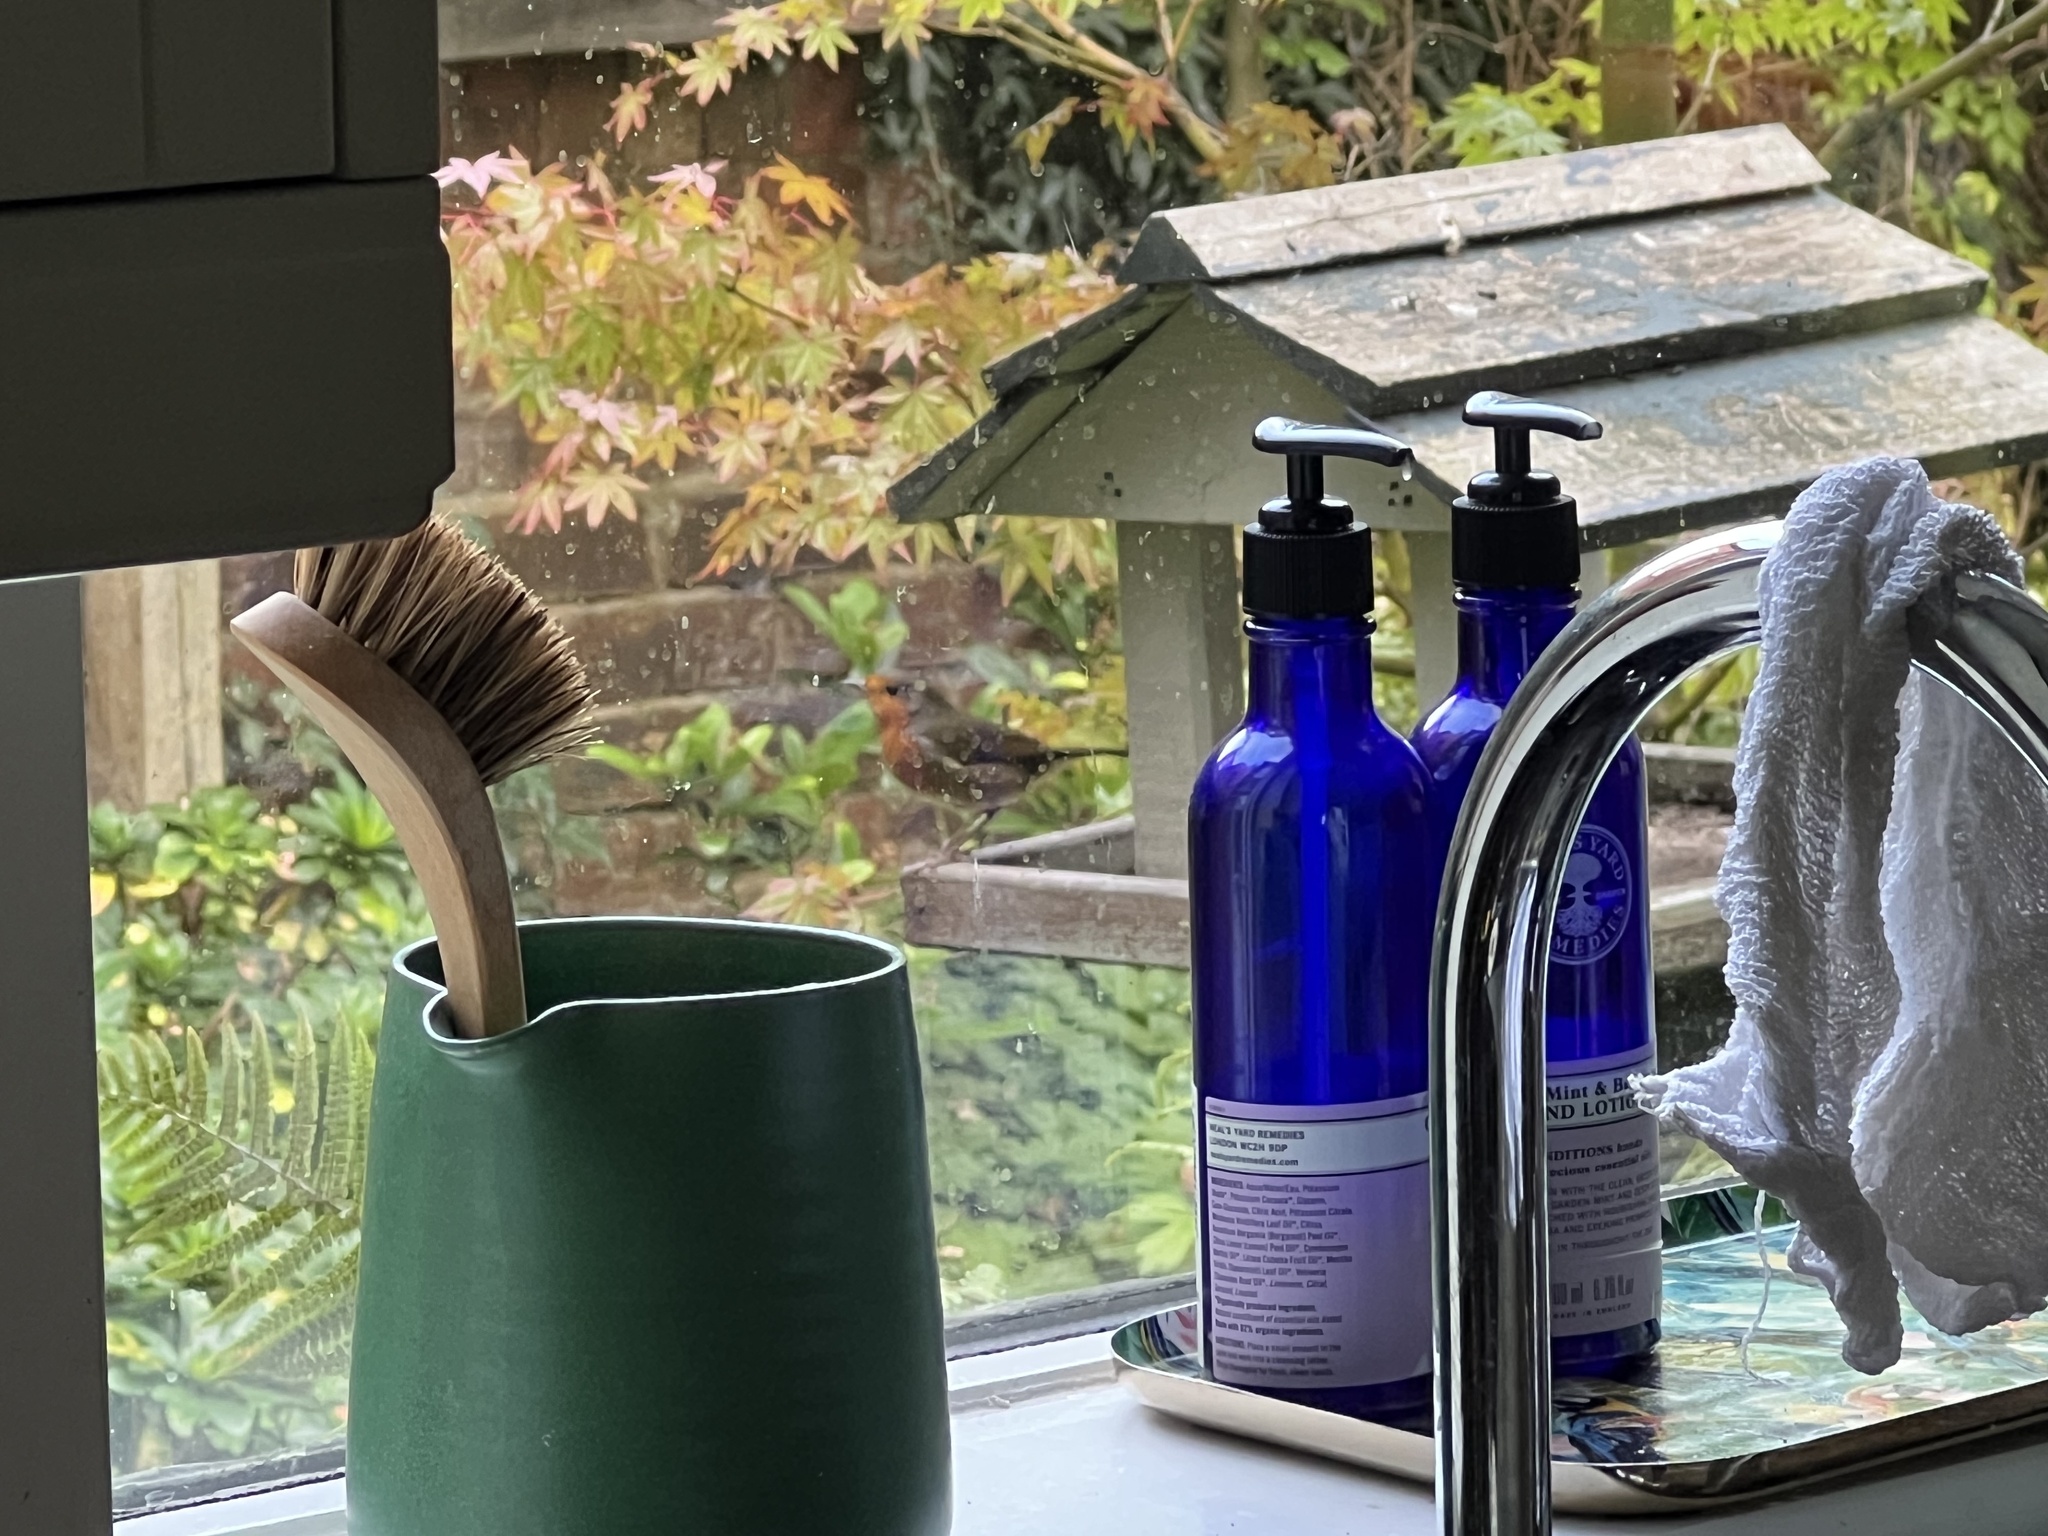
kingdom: Animalia
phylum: Chordata
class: Aves
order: Passeriformes
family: Muscicapidae
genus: Erithacus
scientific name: Erithacus rubecula
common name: European robin
